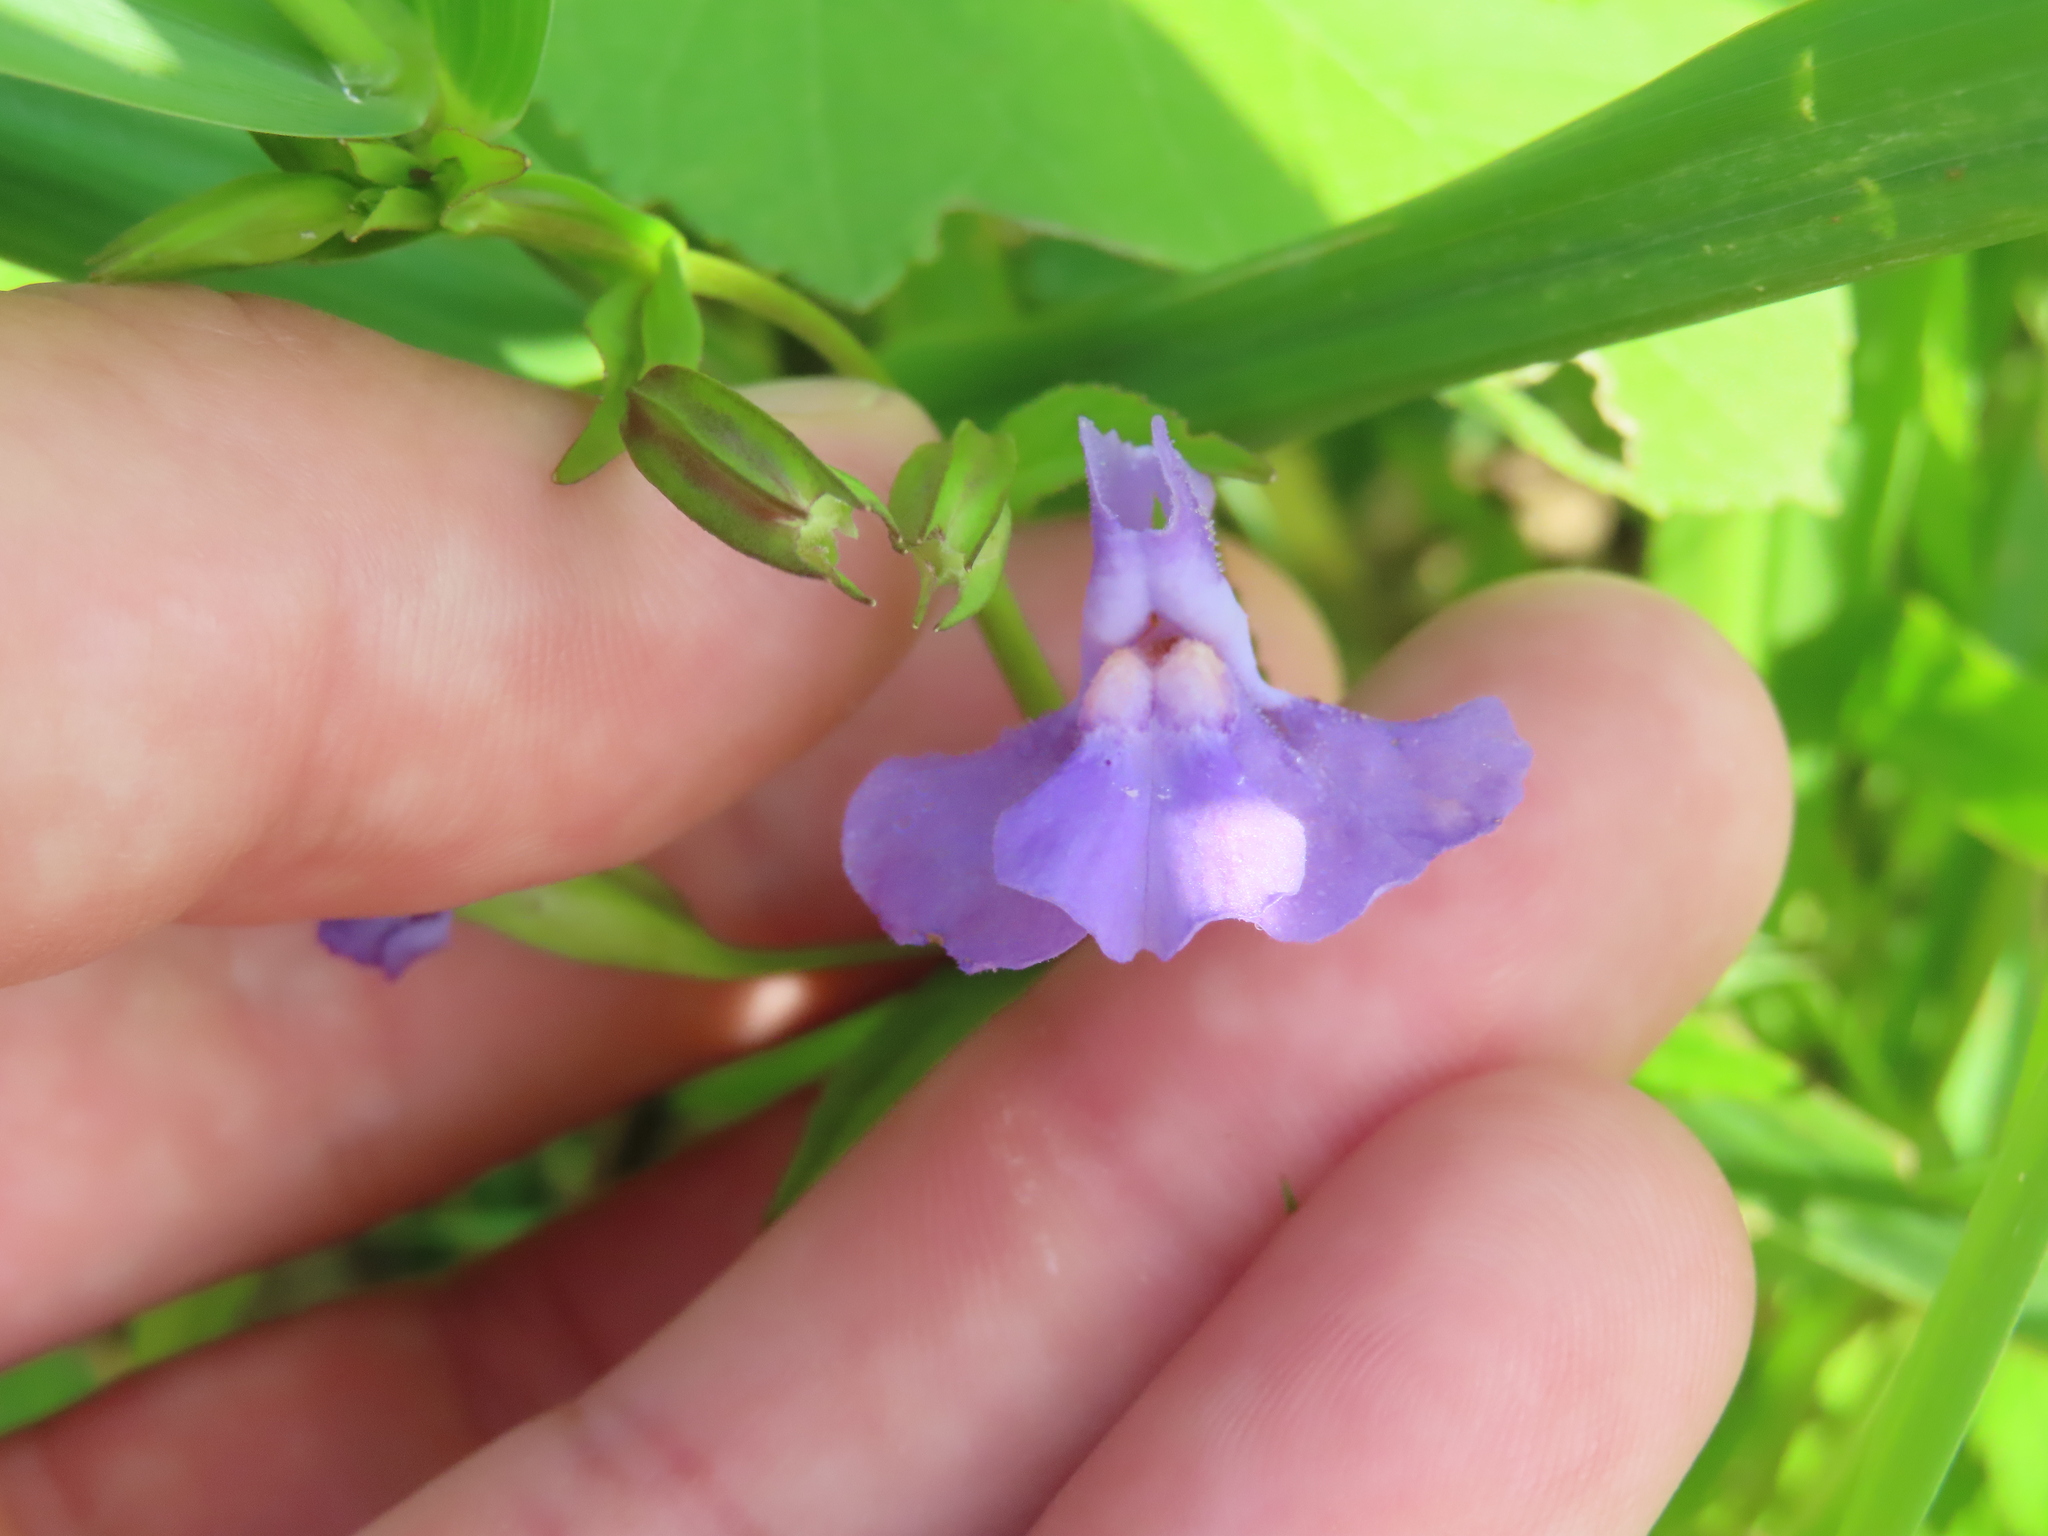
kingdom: Plantae
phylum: Tracheophyta
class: Magnoliopsida
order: Lamiales
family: Phrymaceae
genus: Mimulus
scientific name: Mimulus ringens
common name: Allegheny monkeyflower
